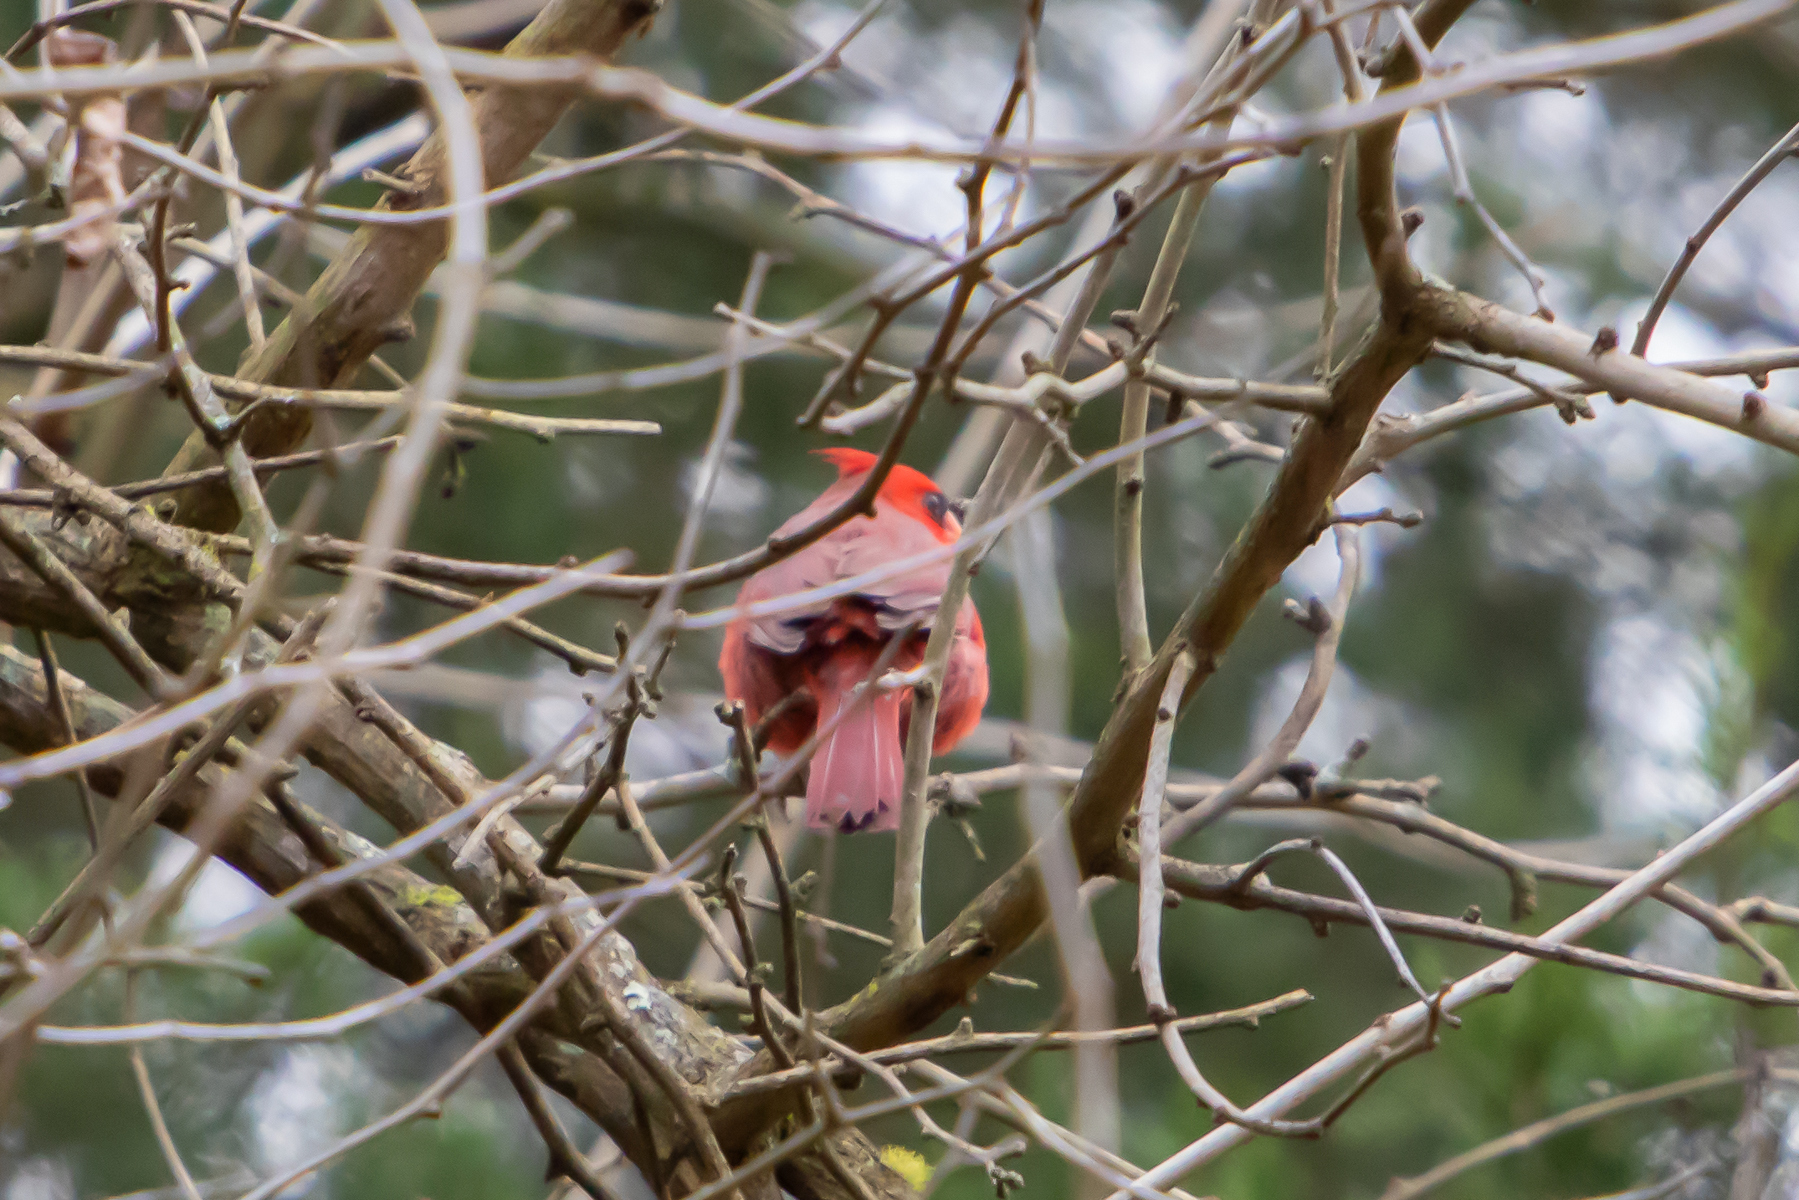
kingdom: Animalia
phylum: Chordata
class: Aves
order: Passeriformes
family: Cardinalidae
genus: Cardinalis
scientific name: Cardinalis cardinalis
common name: Northern cardinal
